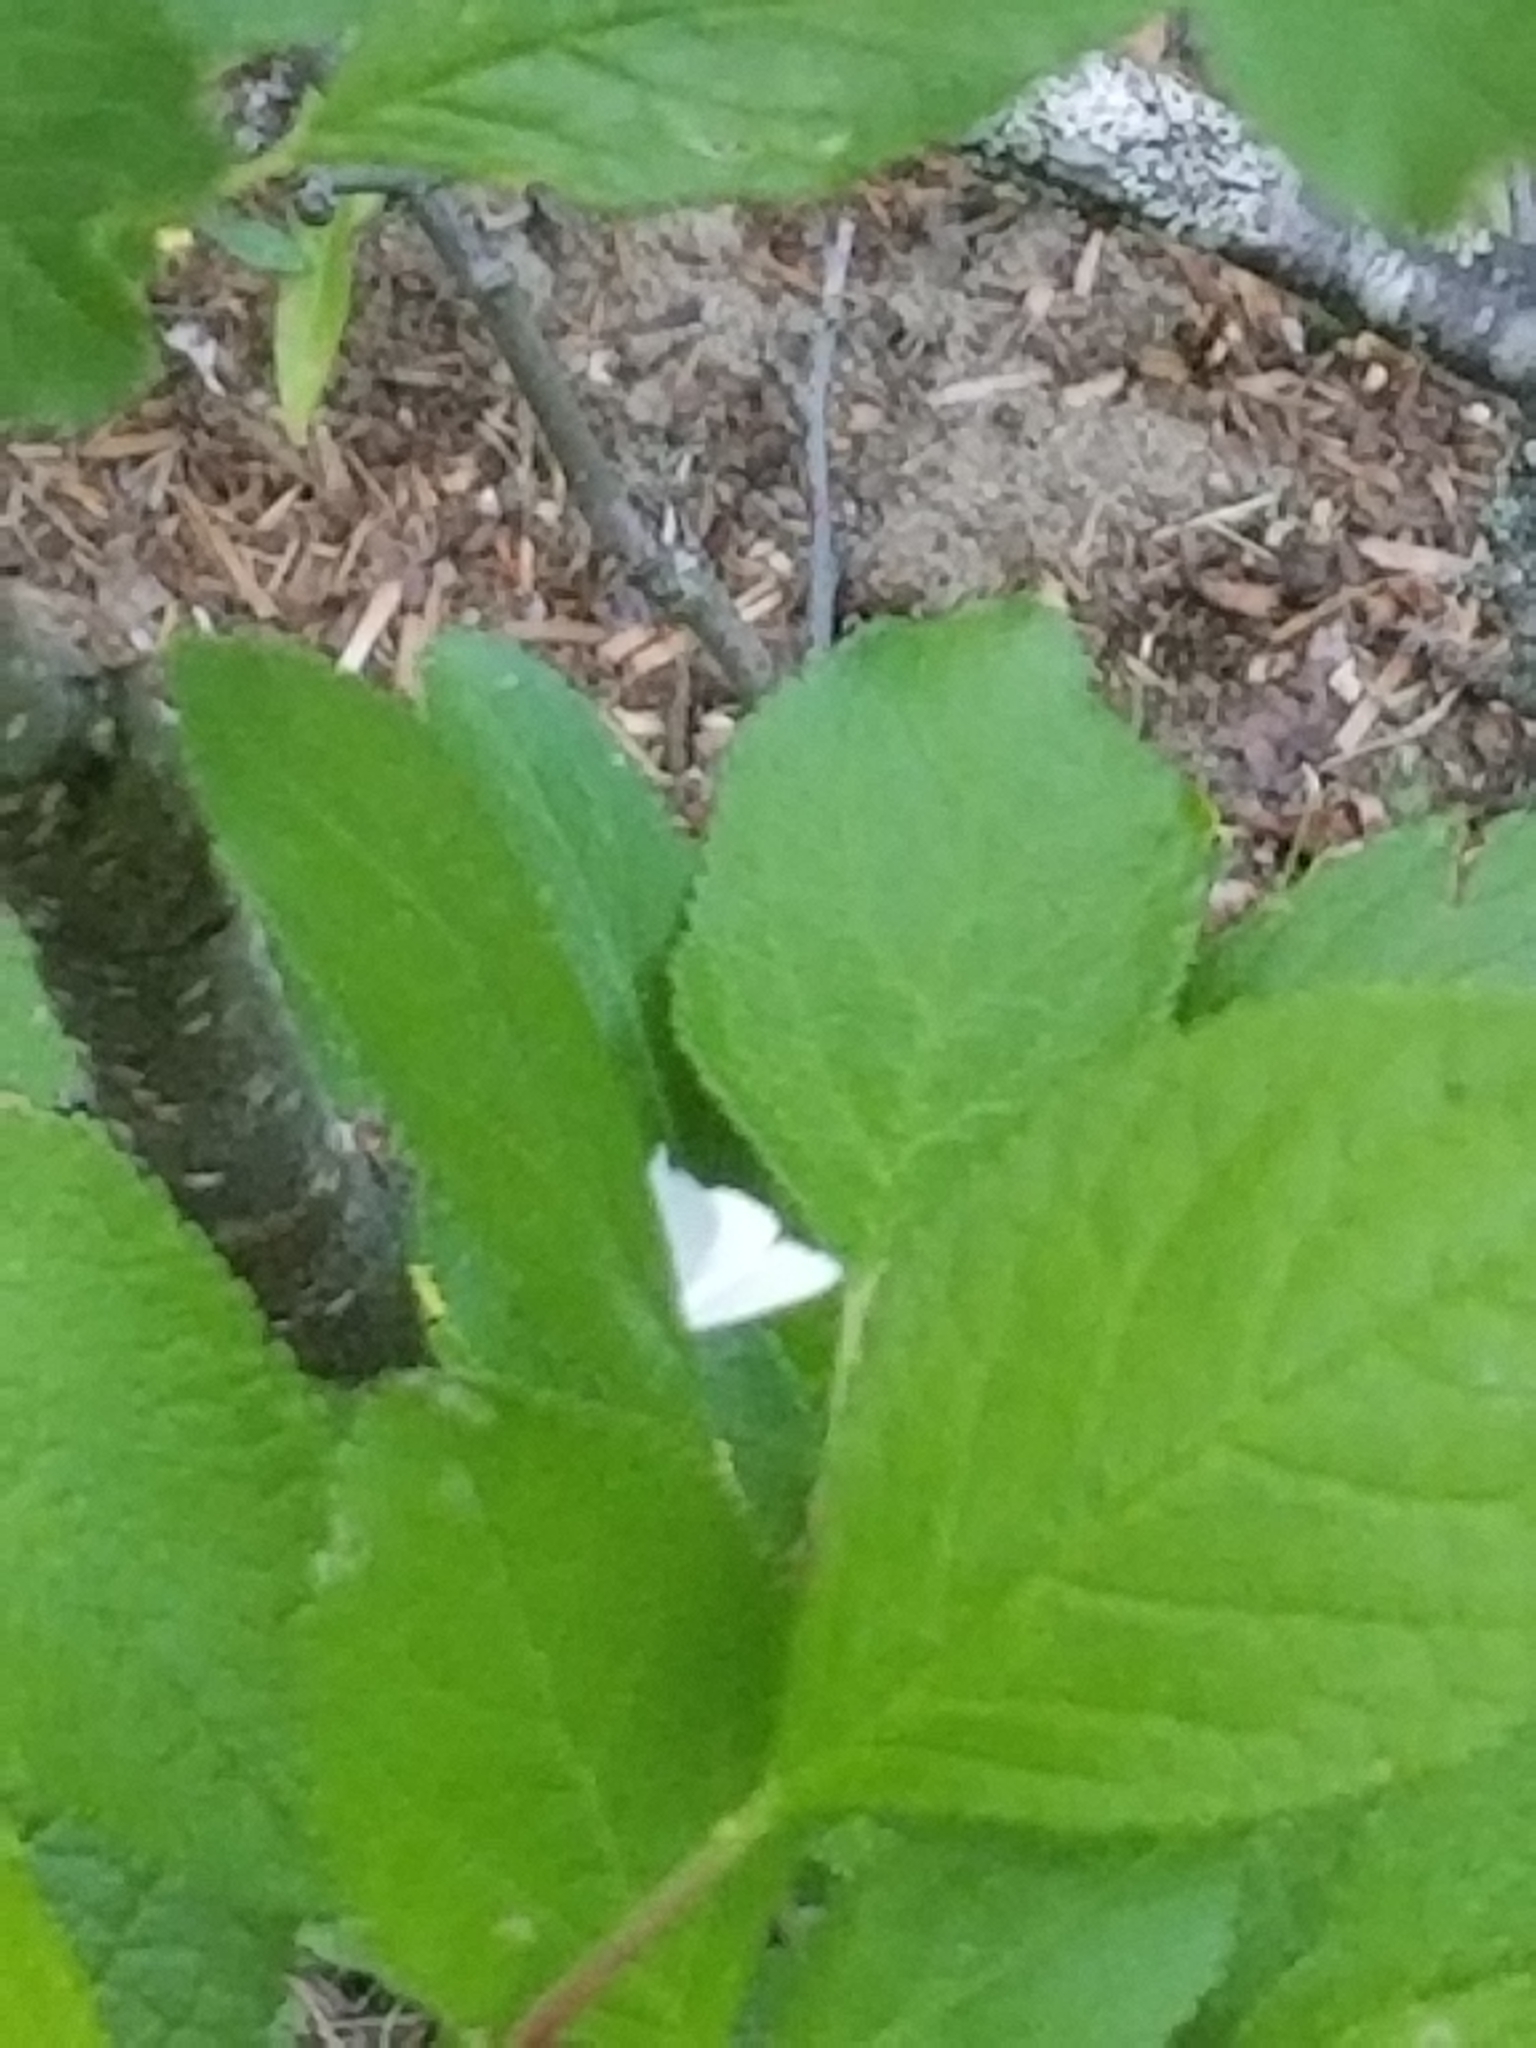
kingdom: Animalia
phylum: Arthropoda
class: Insecta
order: Lepidoptera
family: Geometridae
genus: Lomographa
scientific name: Lomographa vestaliata
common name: White spring moth
